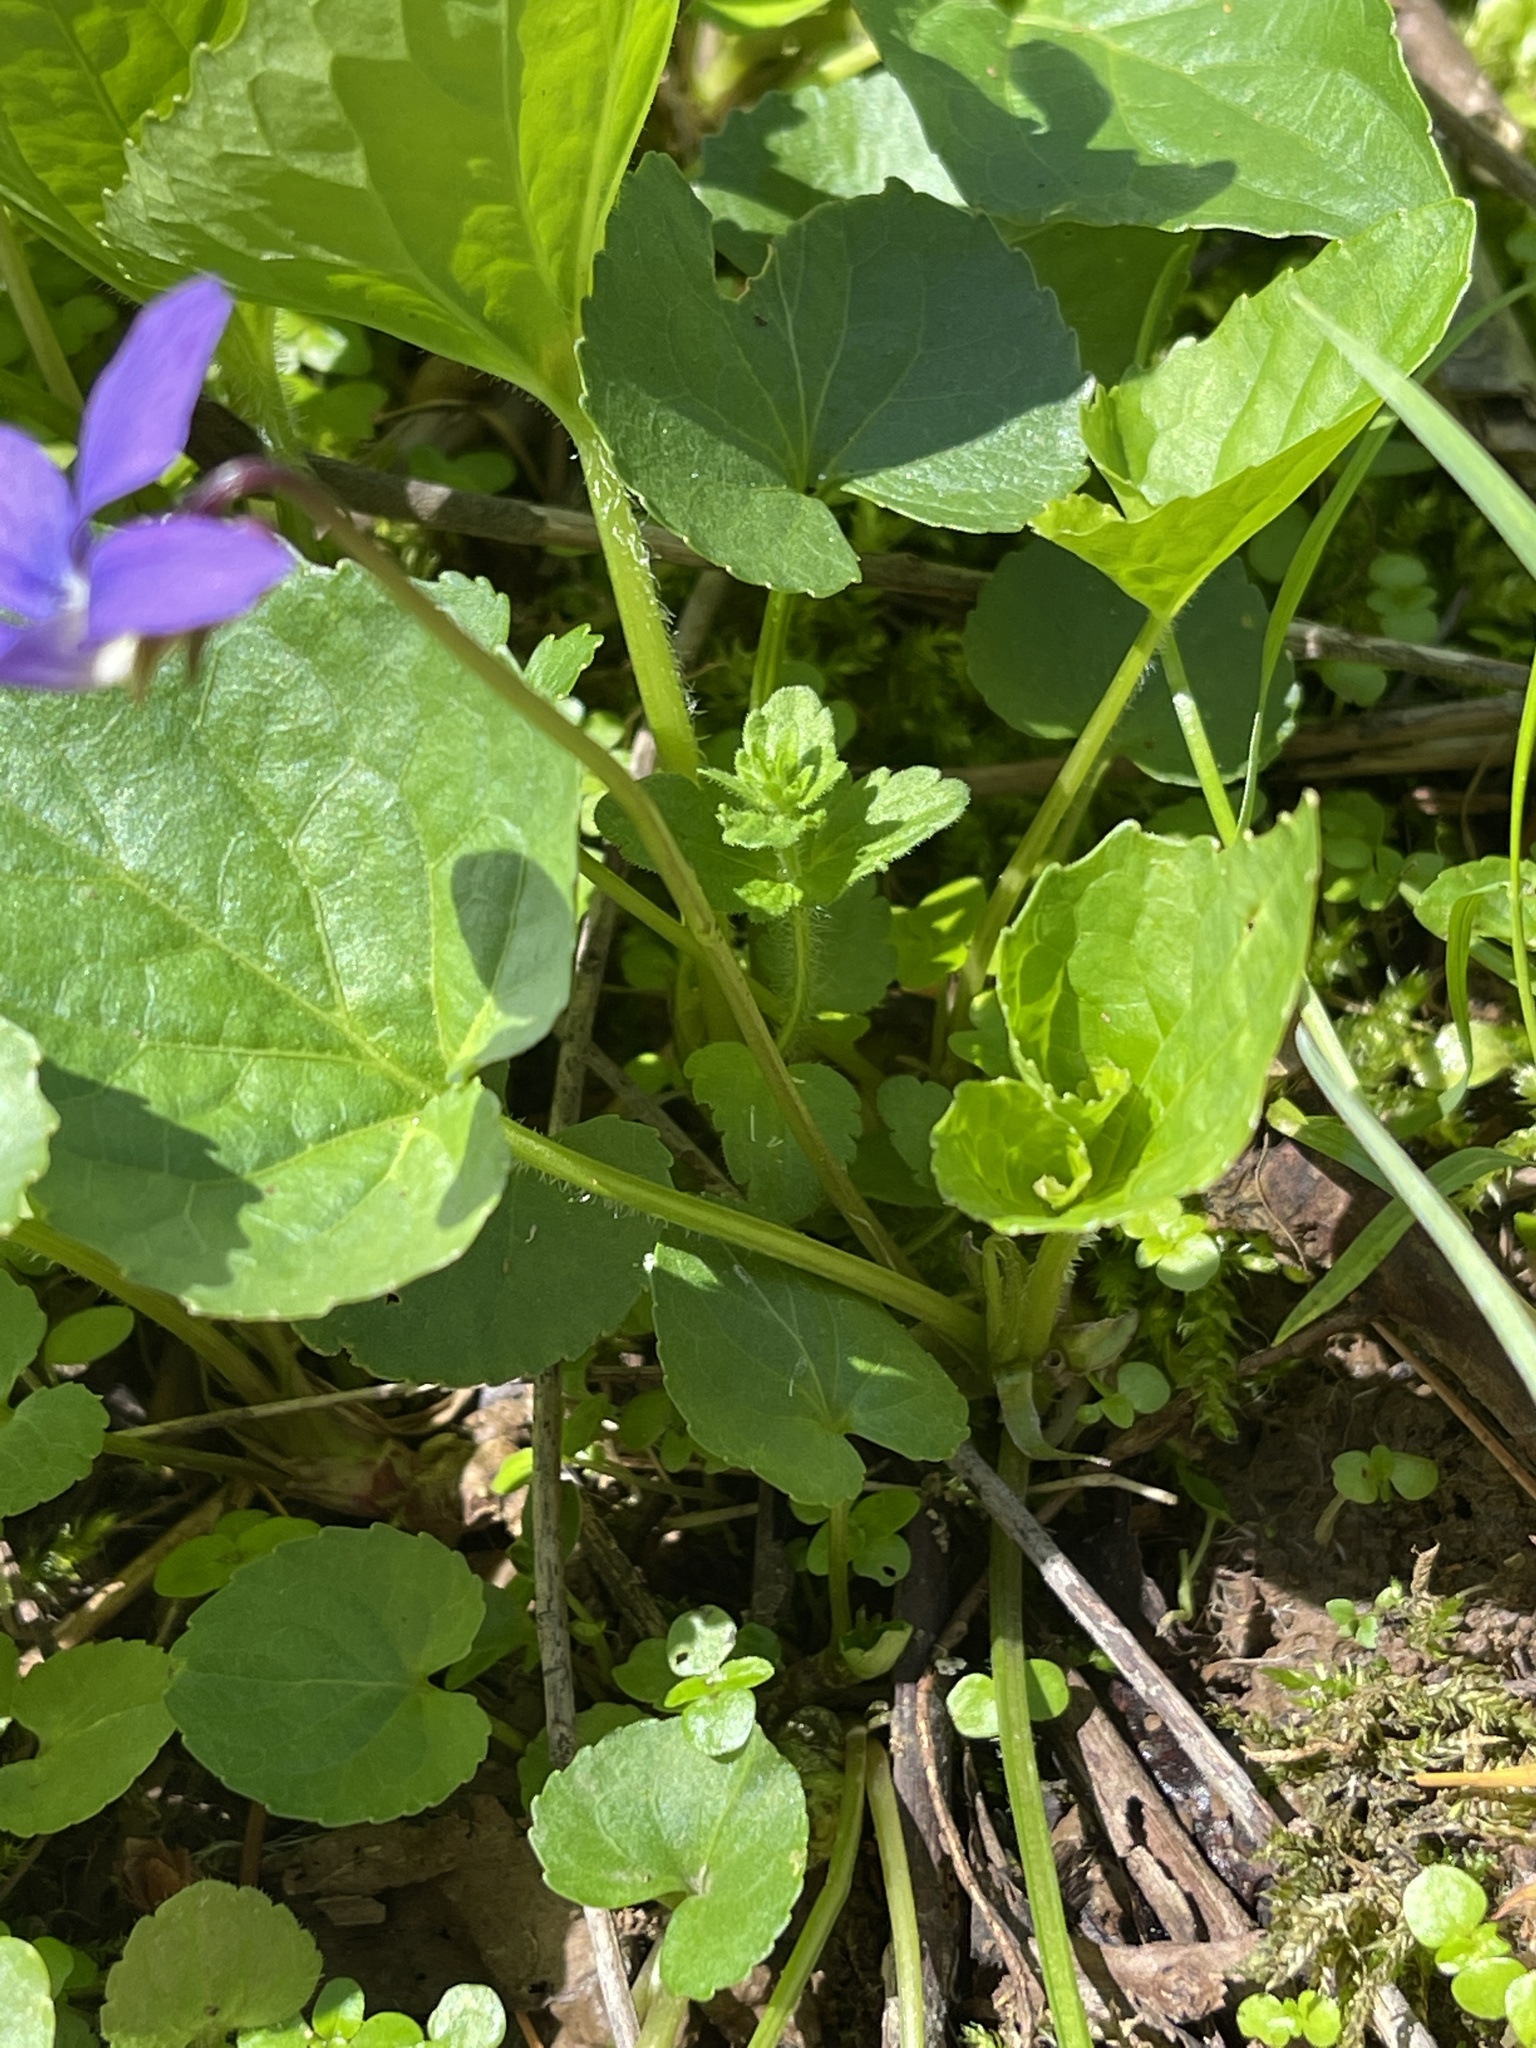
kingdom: Plantae
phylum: Tracheophyta
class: Magnoliopsida
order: Malpighiales
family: Violaceae
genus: Viola
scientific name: Viola sororia
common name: Dooryard violet
